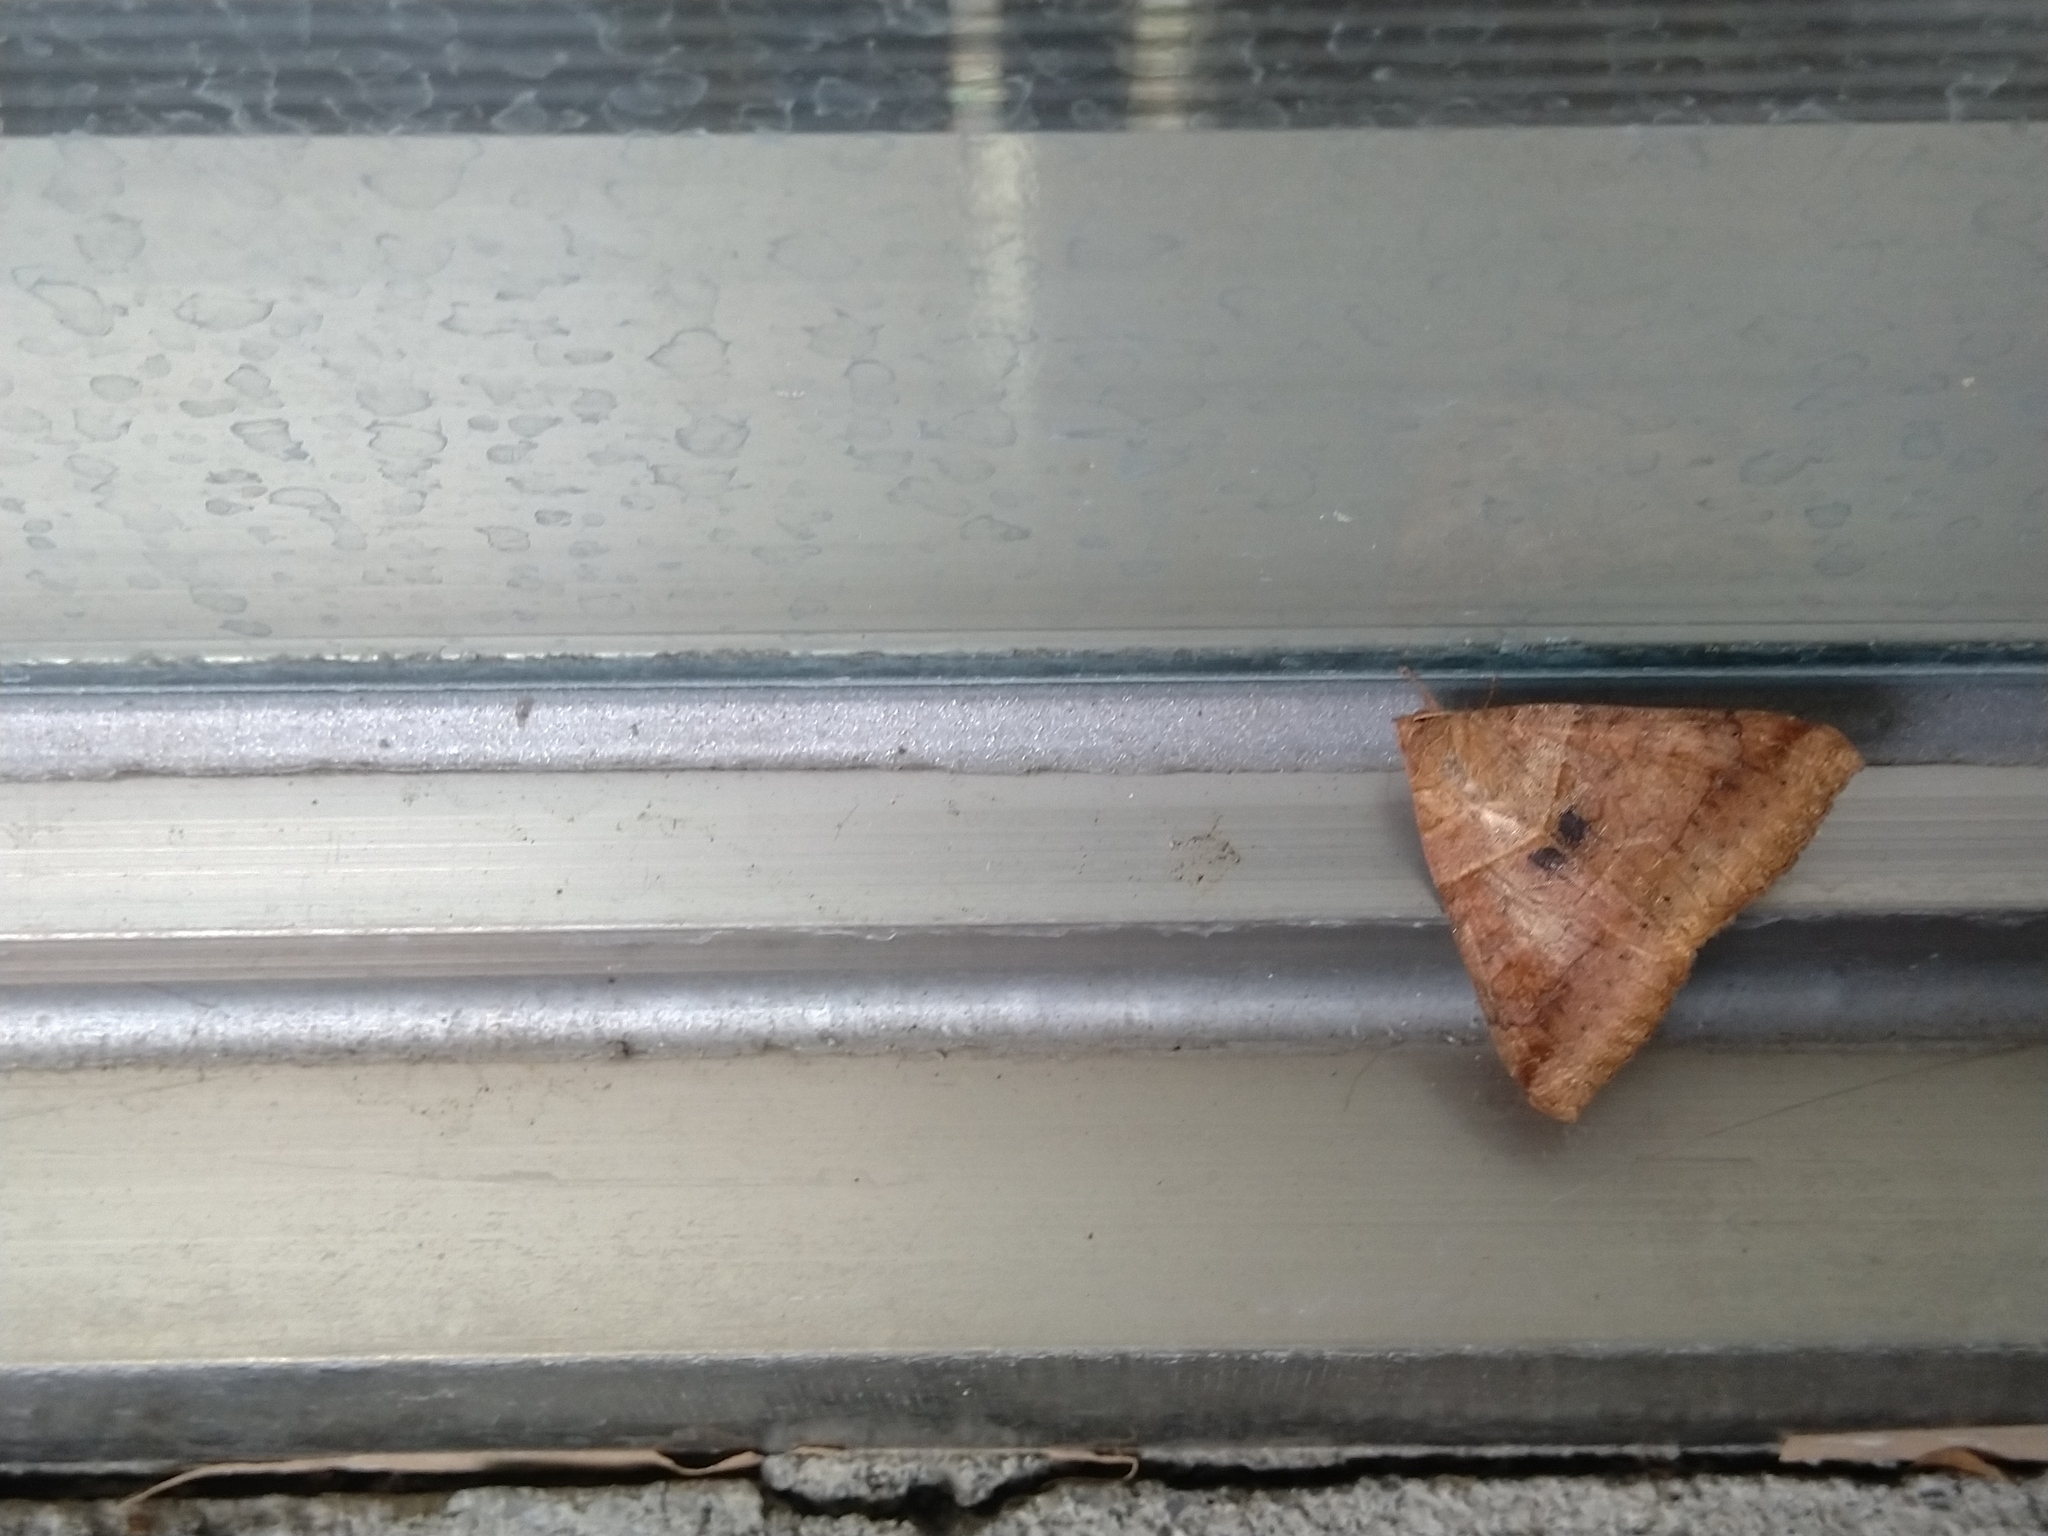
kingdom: Animalia
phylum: Arthropoda
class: Insecta
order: Lepidoptera
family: Erebidae
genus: Mocis
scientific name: Mocis undata
